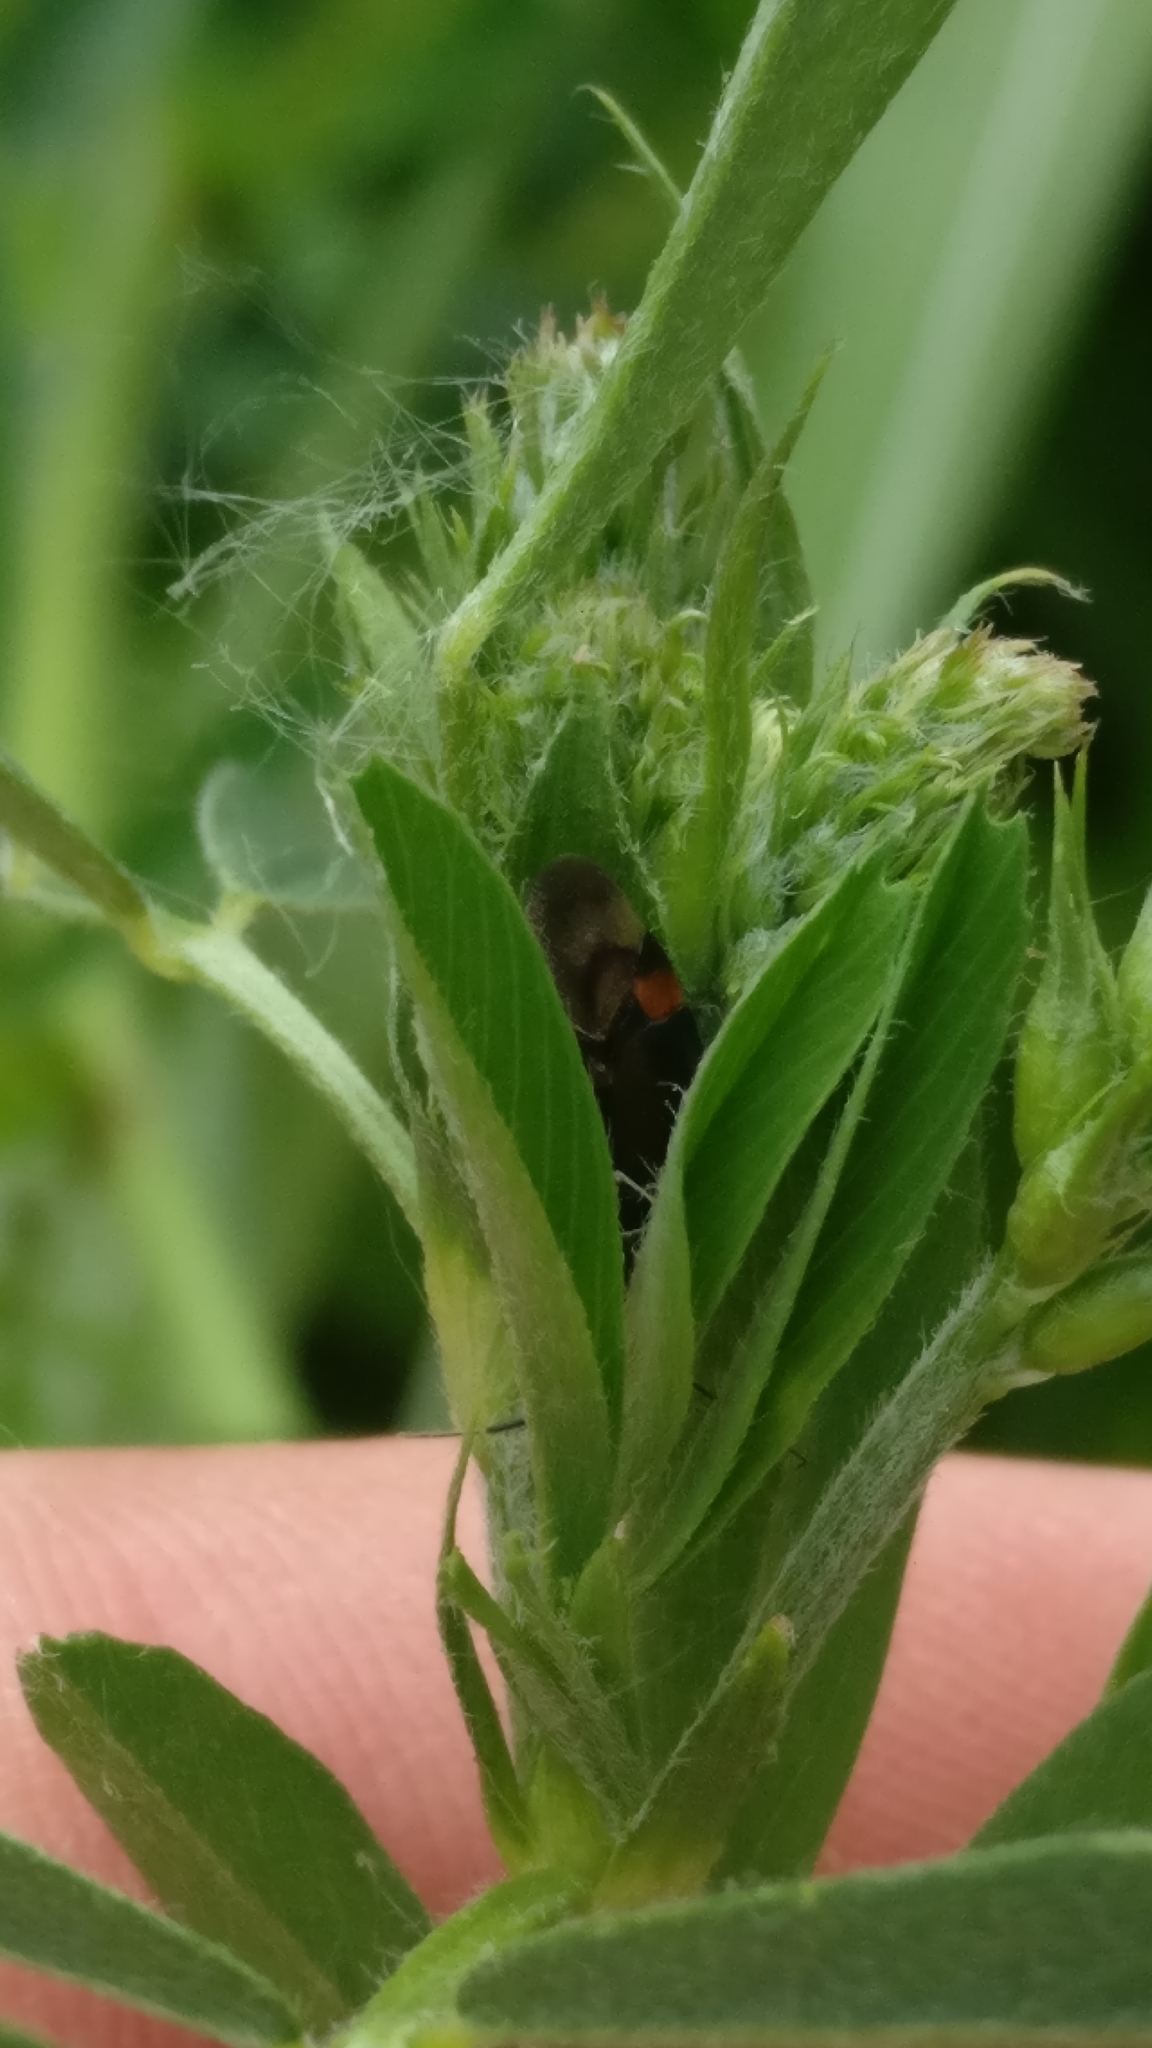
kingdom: Animalia
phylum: Arthropoda
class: Insecta
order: Hemiptera
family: Miridae
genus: Deraeocoris
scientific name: Deraeocoris flavilinea
